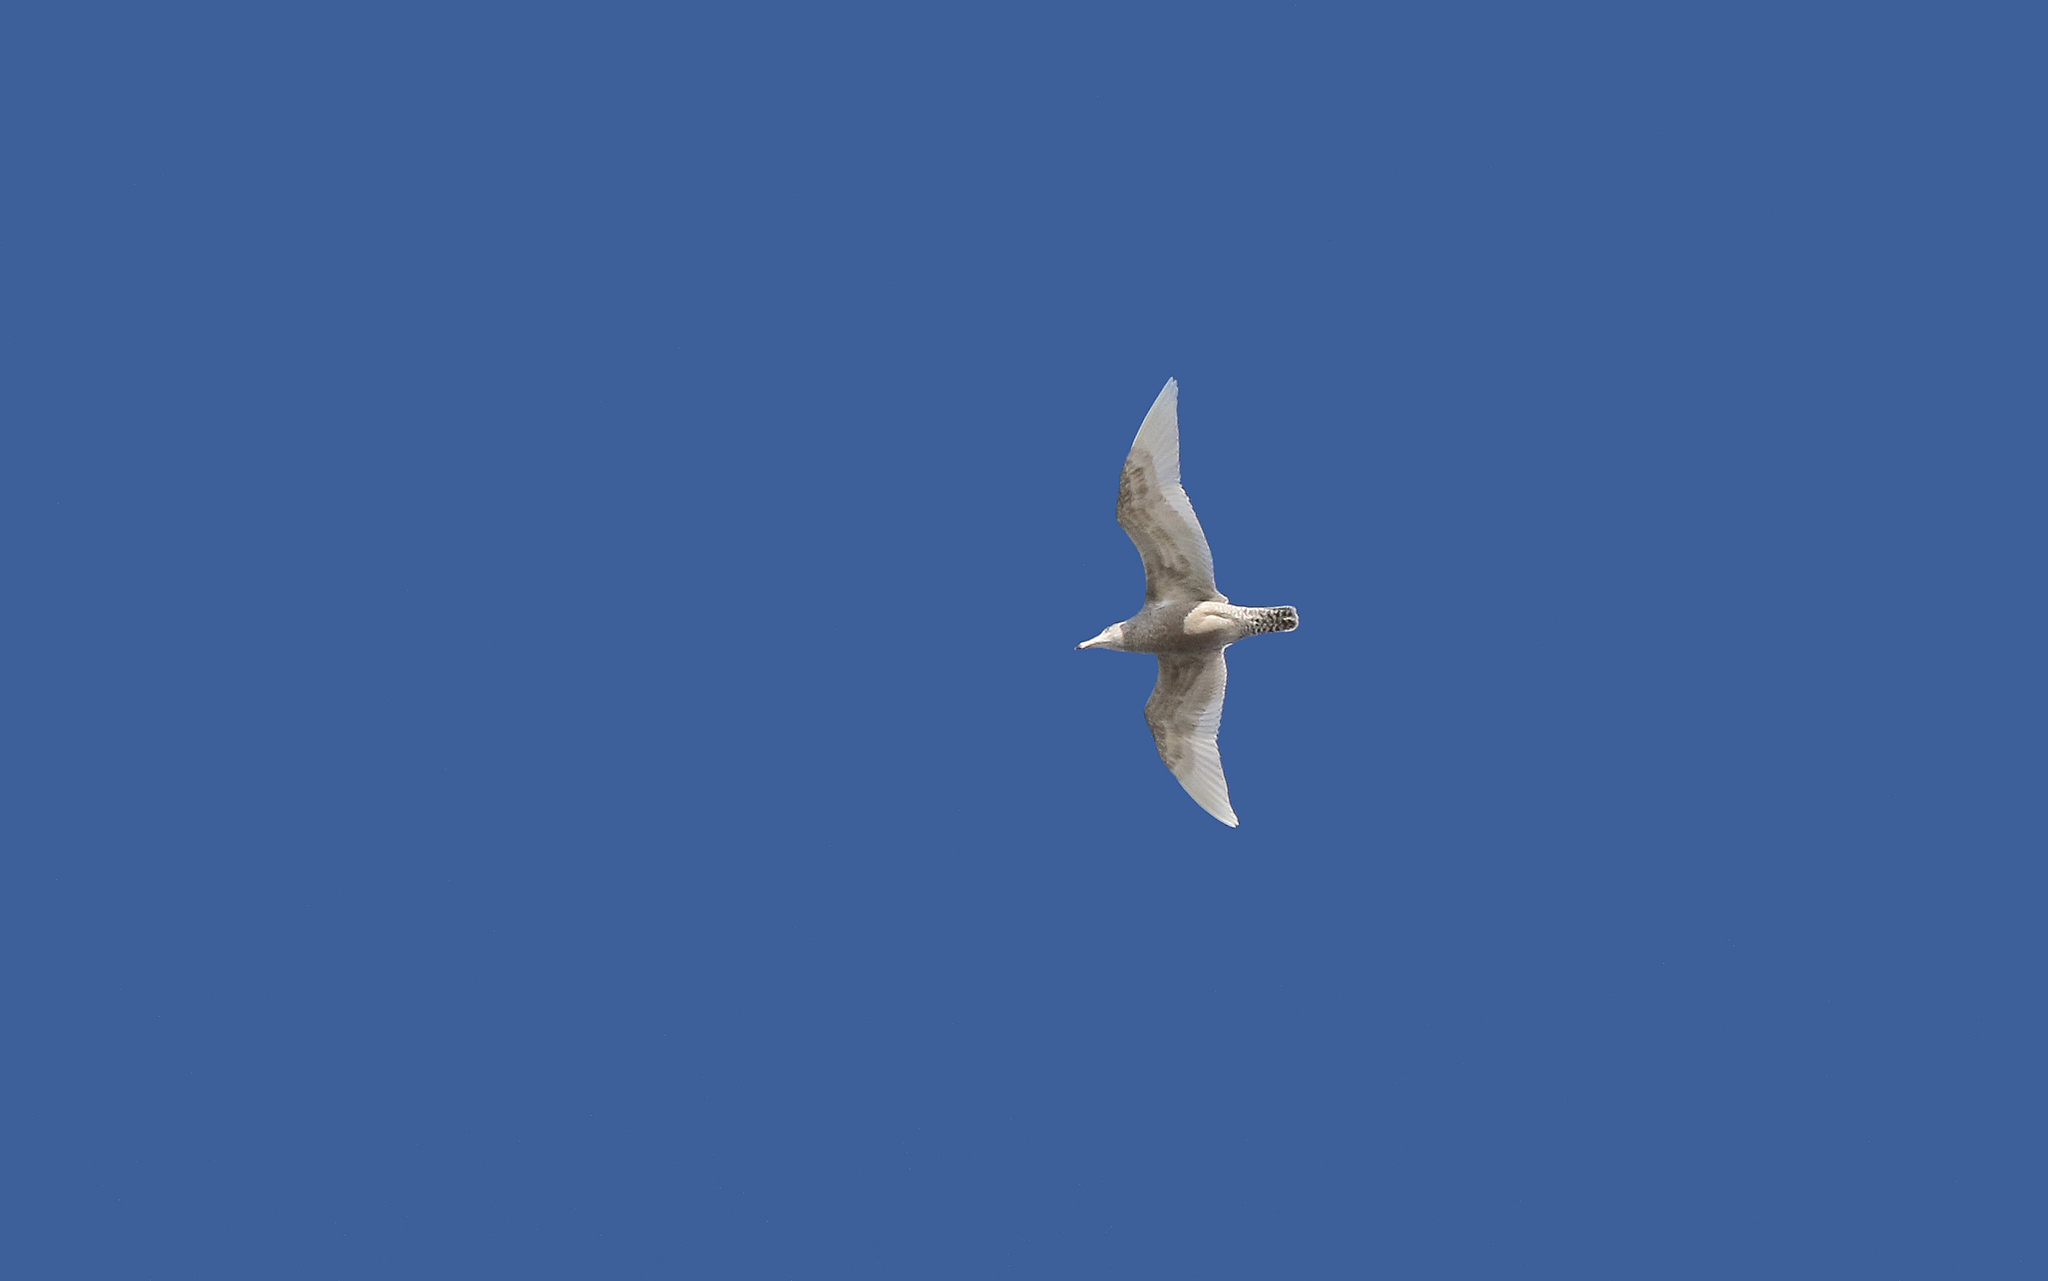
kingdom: Animalia
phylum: Chordata
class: Aves
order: Charadriiformes
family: Laridae
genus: Larus
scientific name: Larus hyperboreus
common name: Glaucous gull
